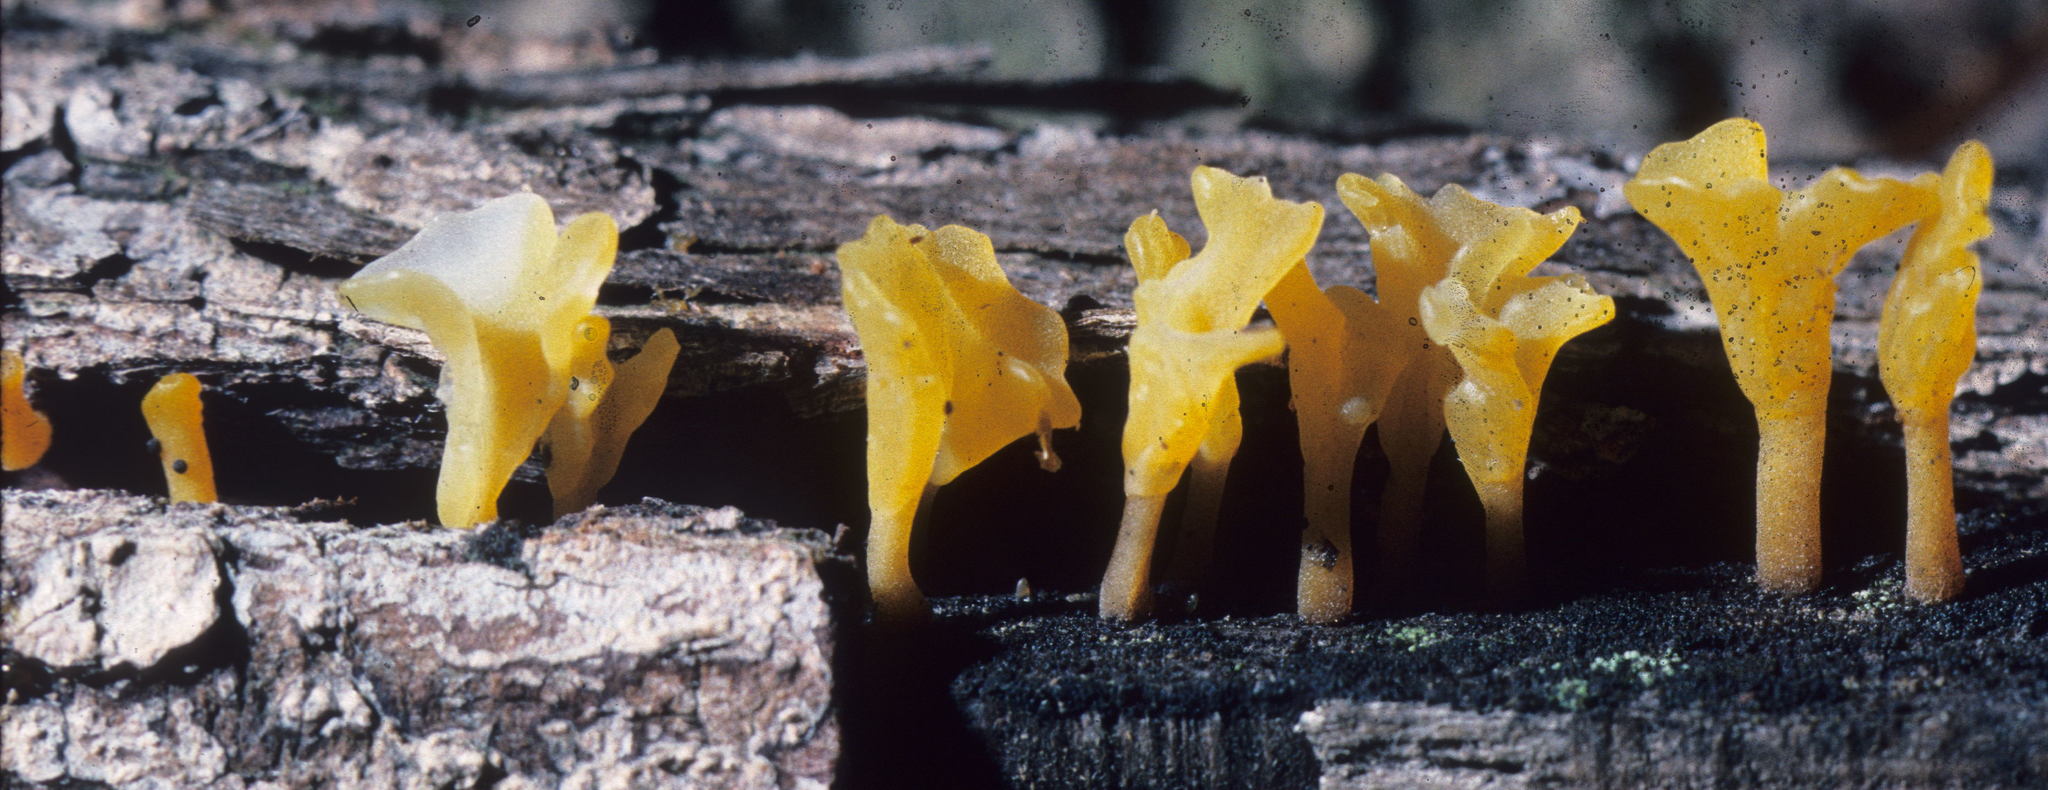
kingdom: Fungi
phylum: Basidiomycota
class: Dacrymycetes
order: Dacrymycetales
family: Dacrymycetaceae
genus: Dacrymyces
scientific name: Dacrymyces spathularius
